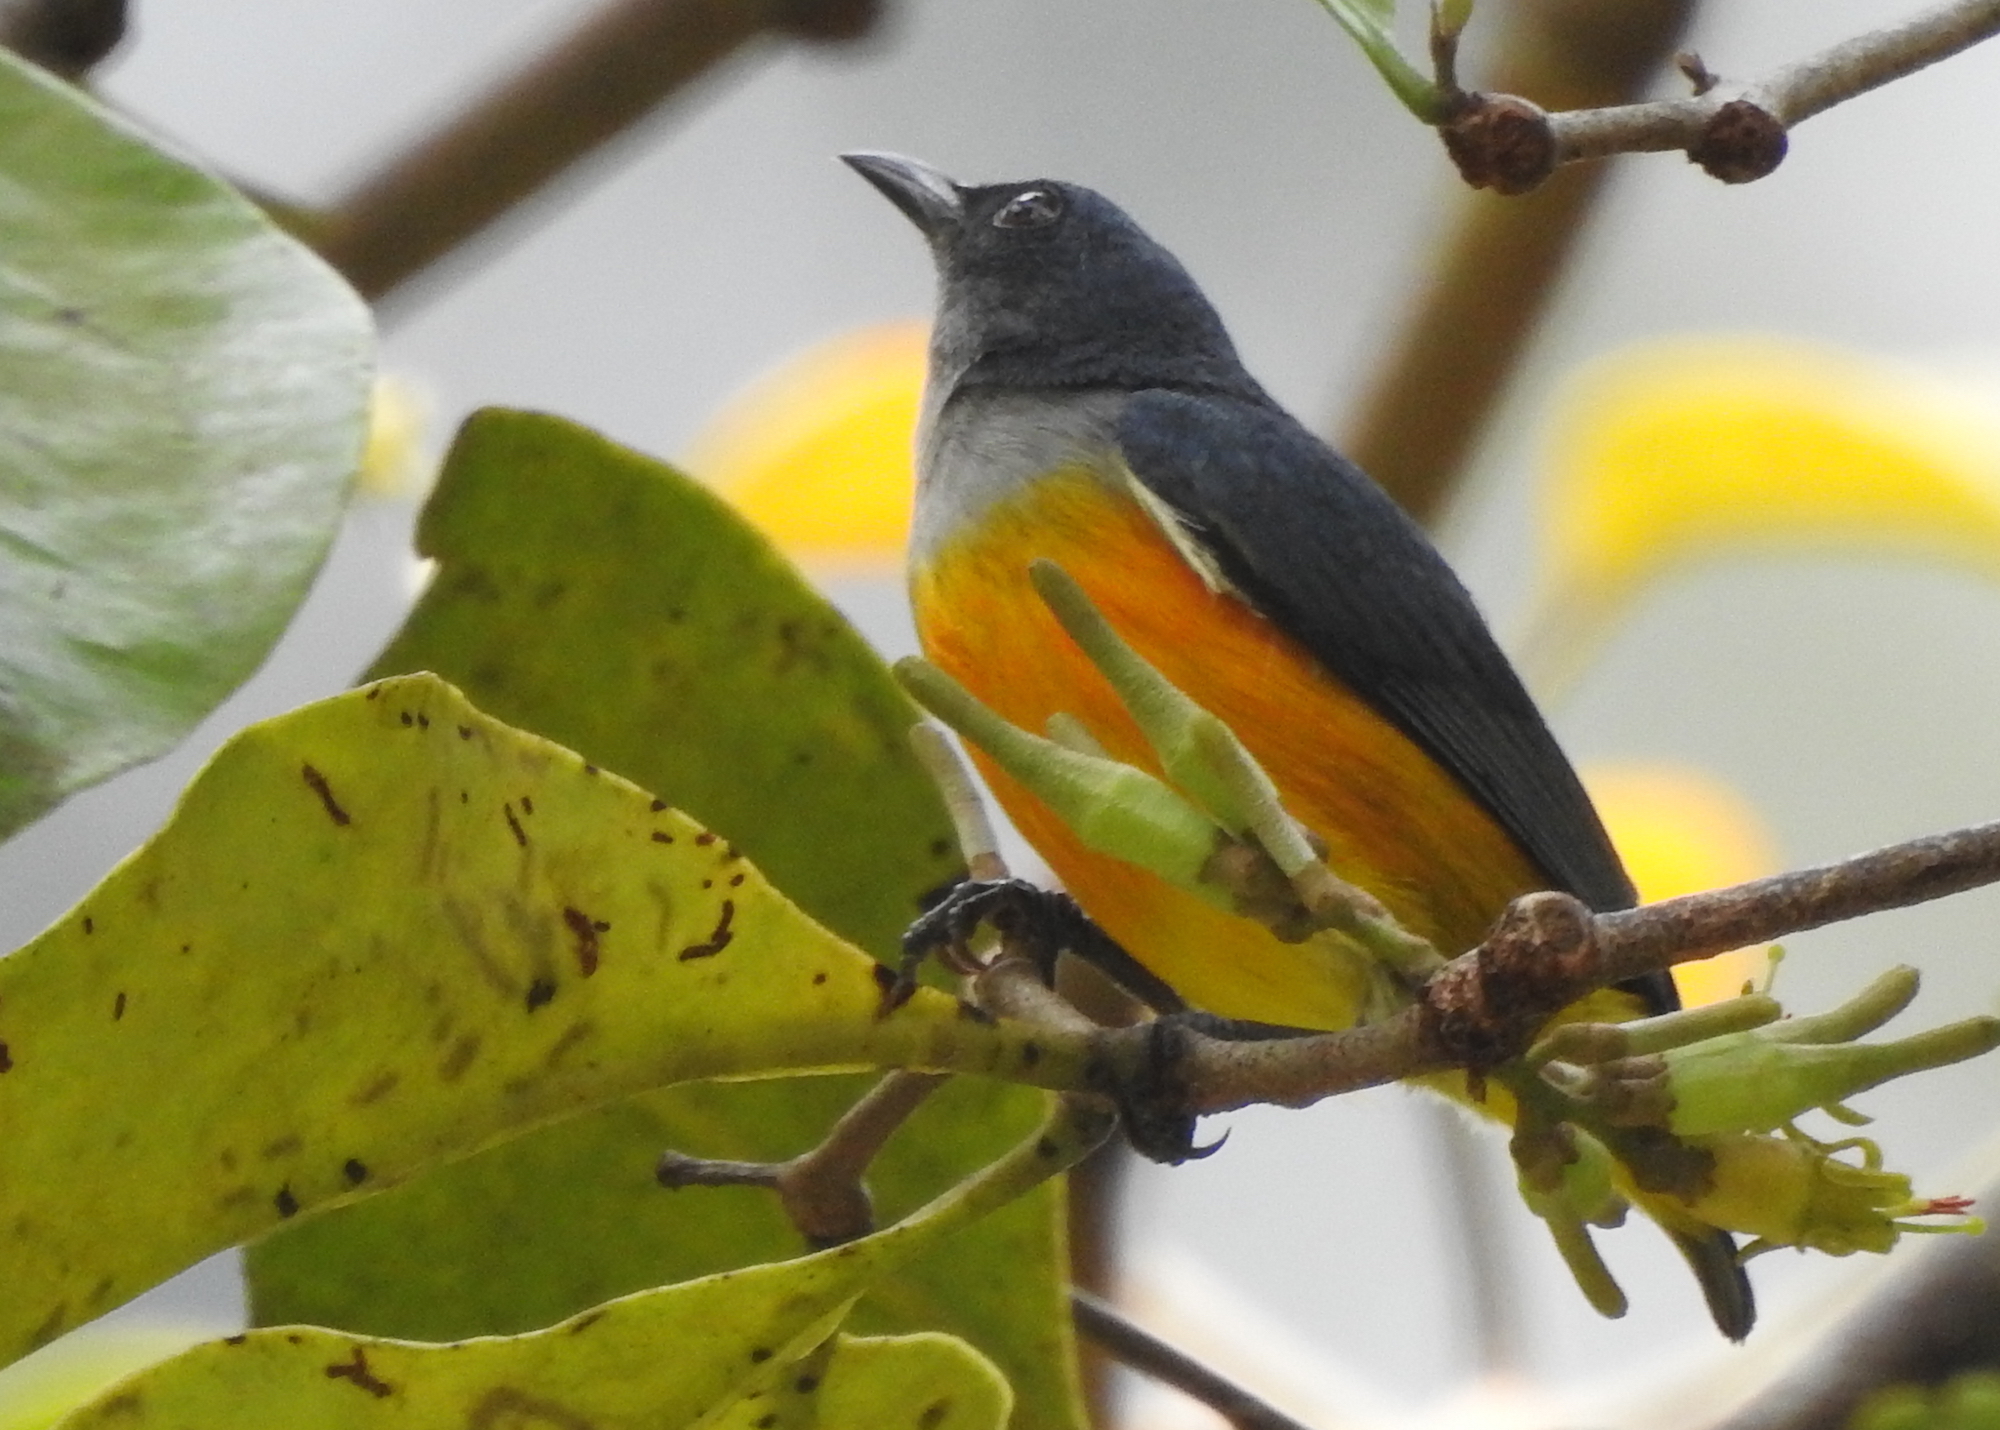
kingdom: Animalia
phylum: Chordata
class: Aves
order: Passeriformes
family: Dicaeidae
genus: Dicaeum
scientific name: Dicaeum trigonostigma
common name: Orange-bellied flowerpecker
